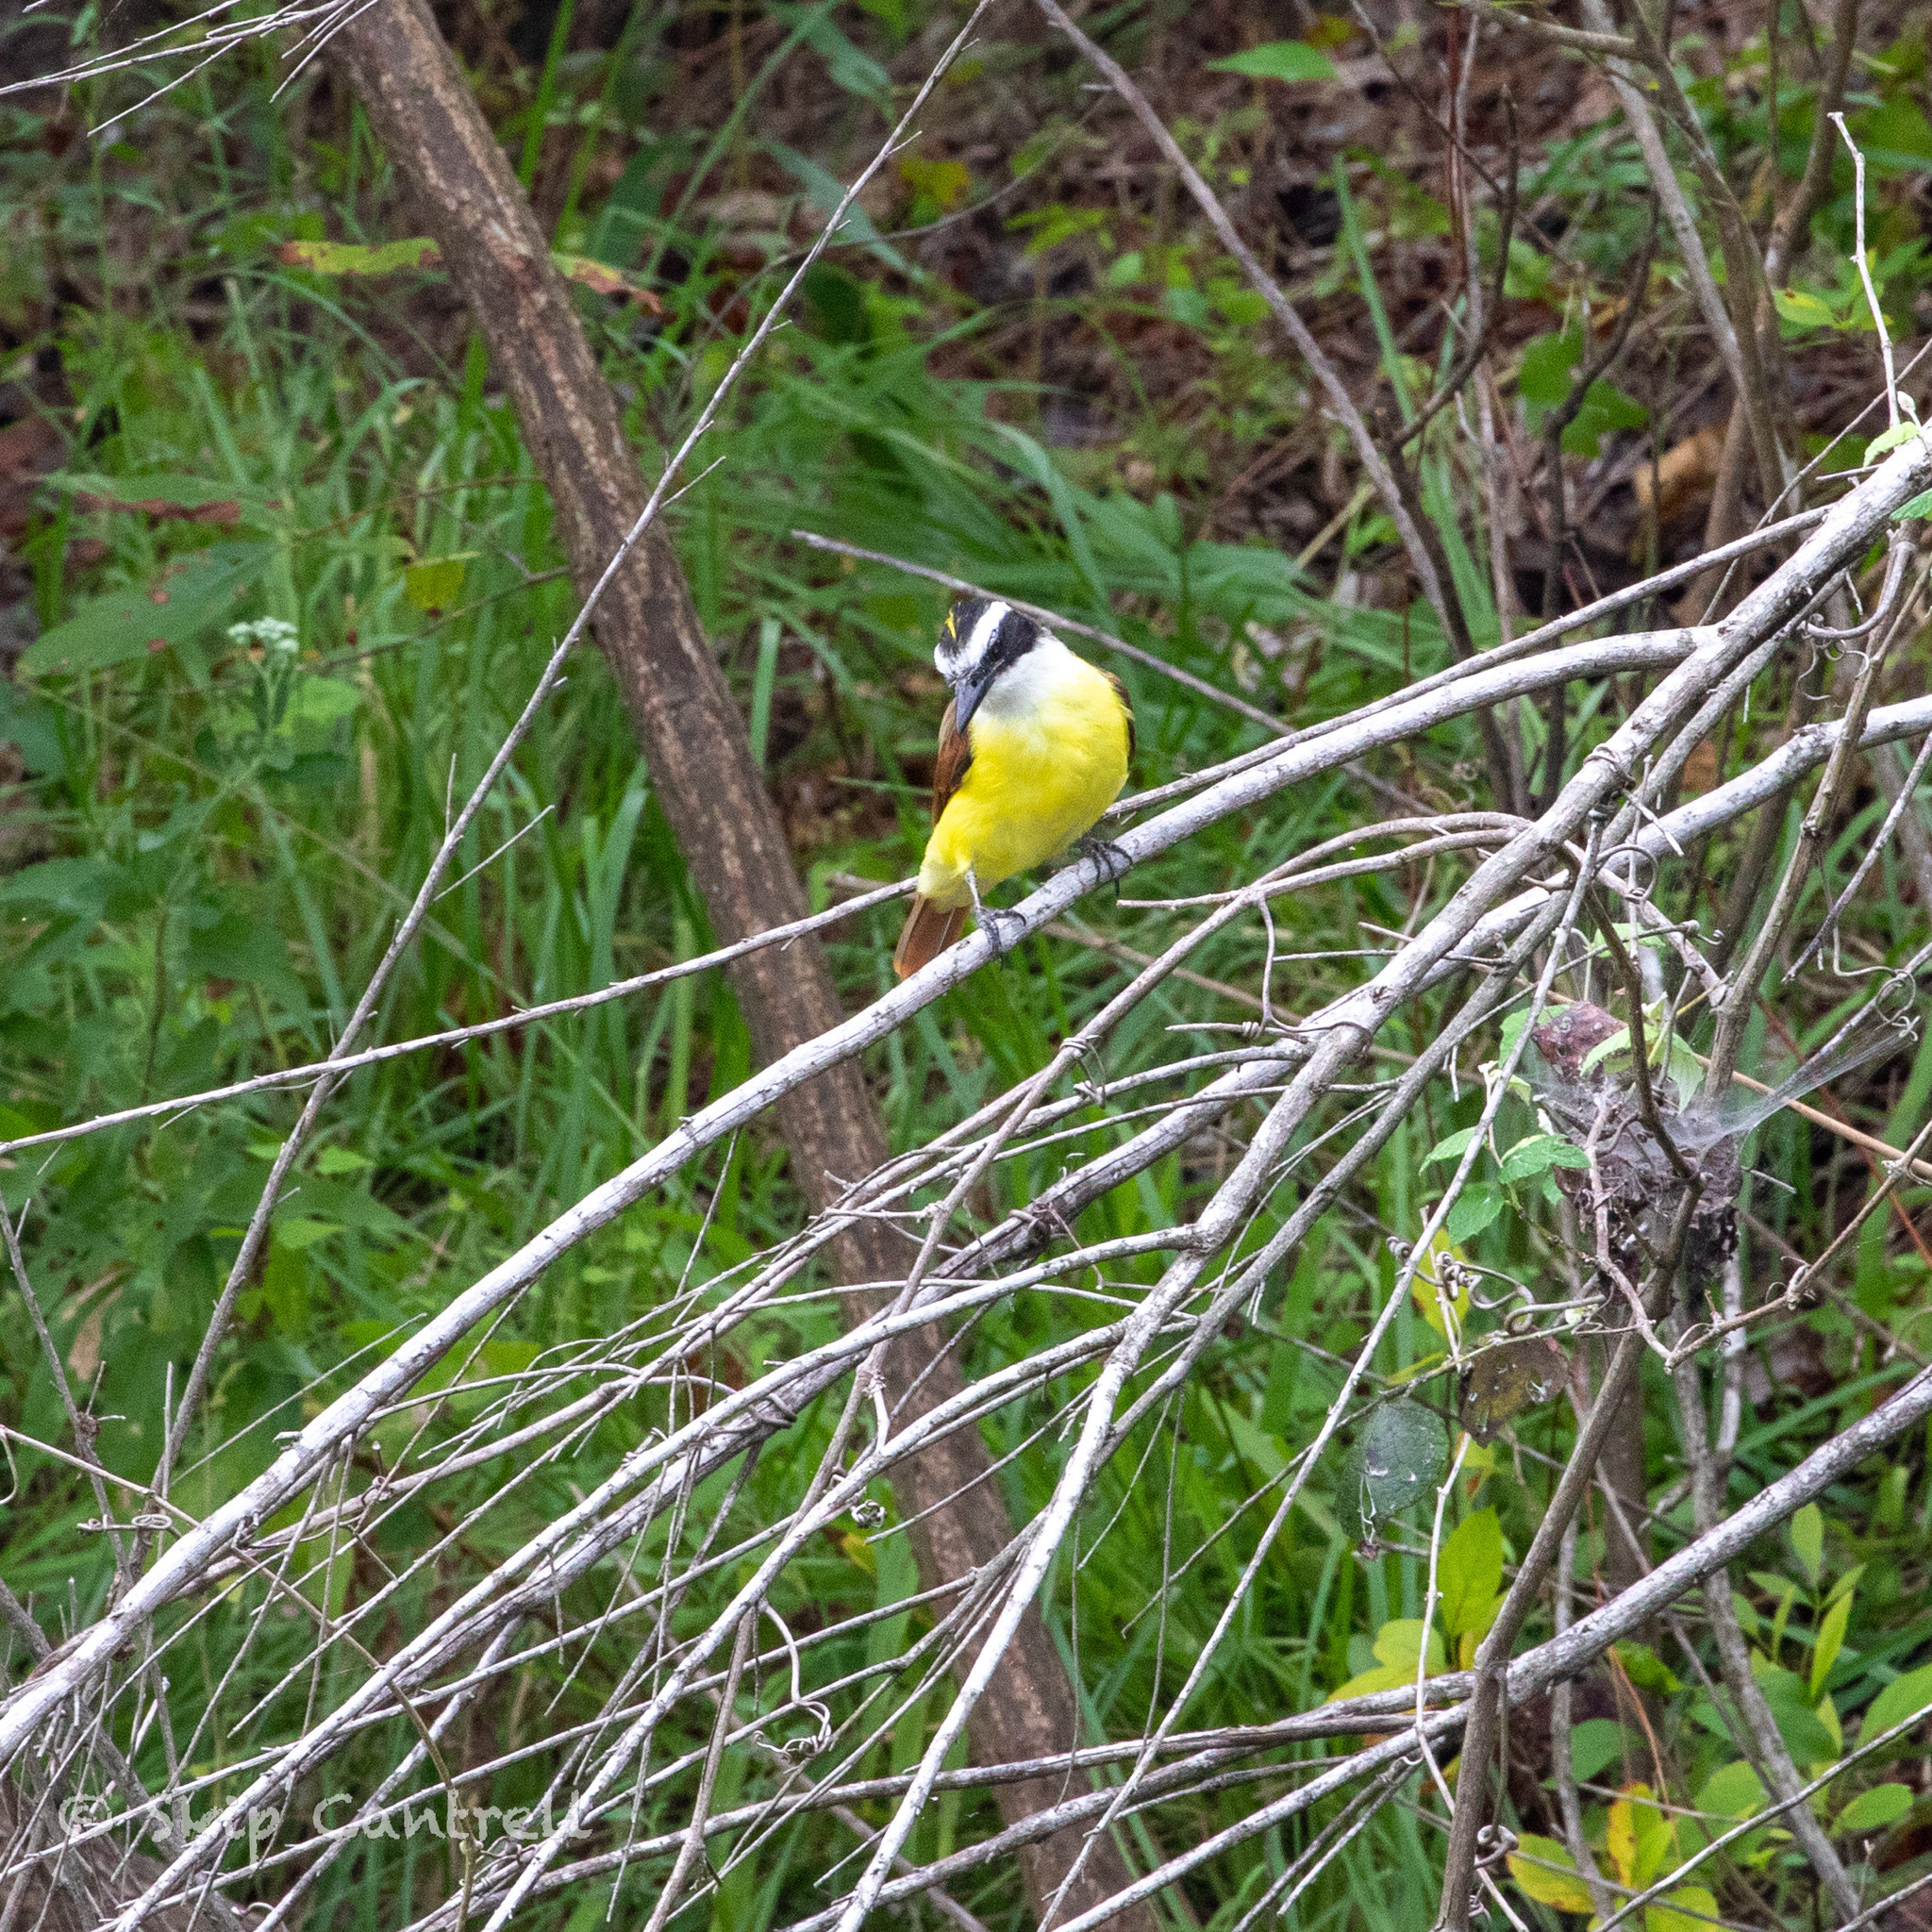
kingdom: Animalia
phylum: Chordata
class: Aves
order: Passeriformes
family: Tyrannidae
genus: Pitangus
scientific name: Pitangus sulphuratus
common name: Great kiskadee
